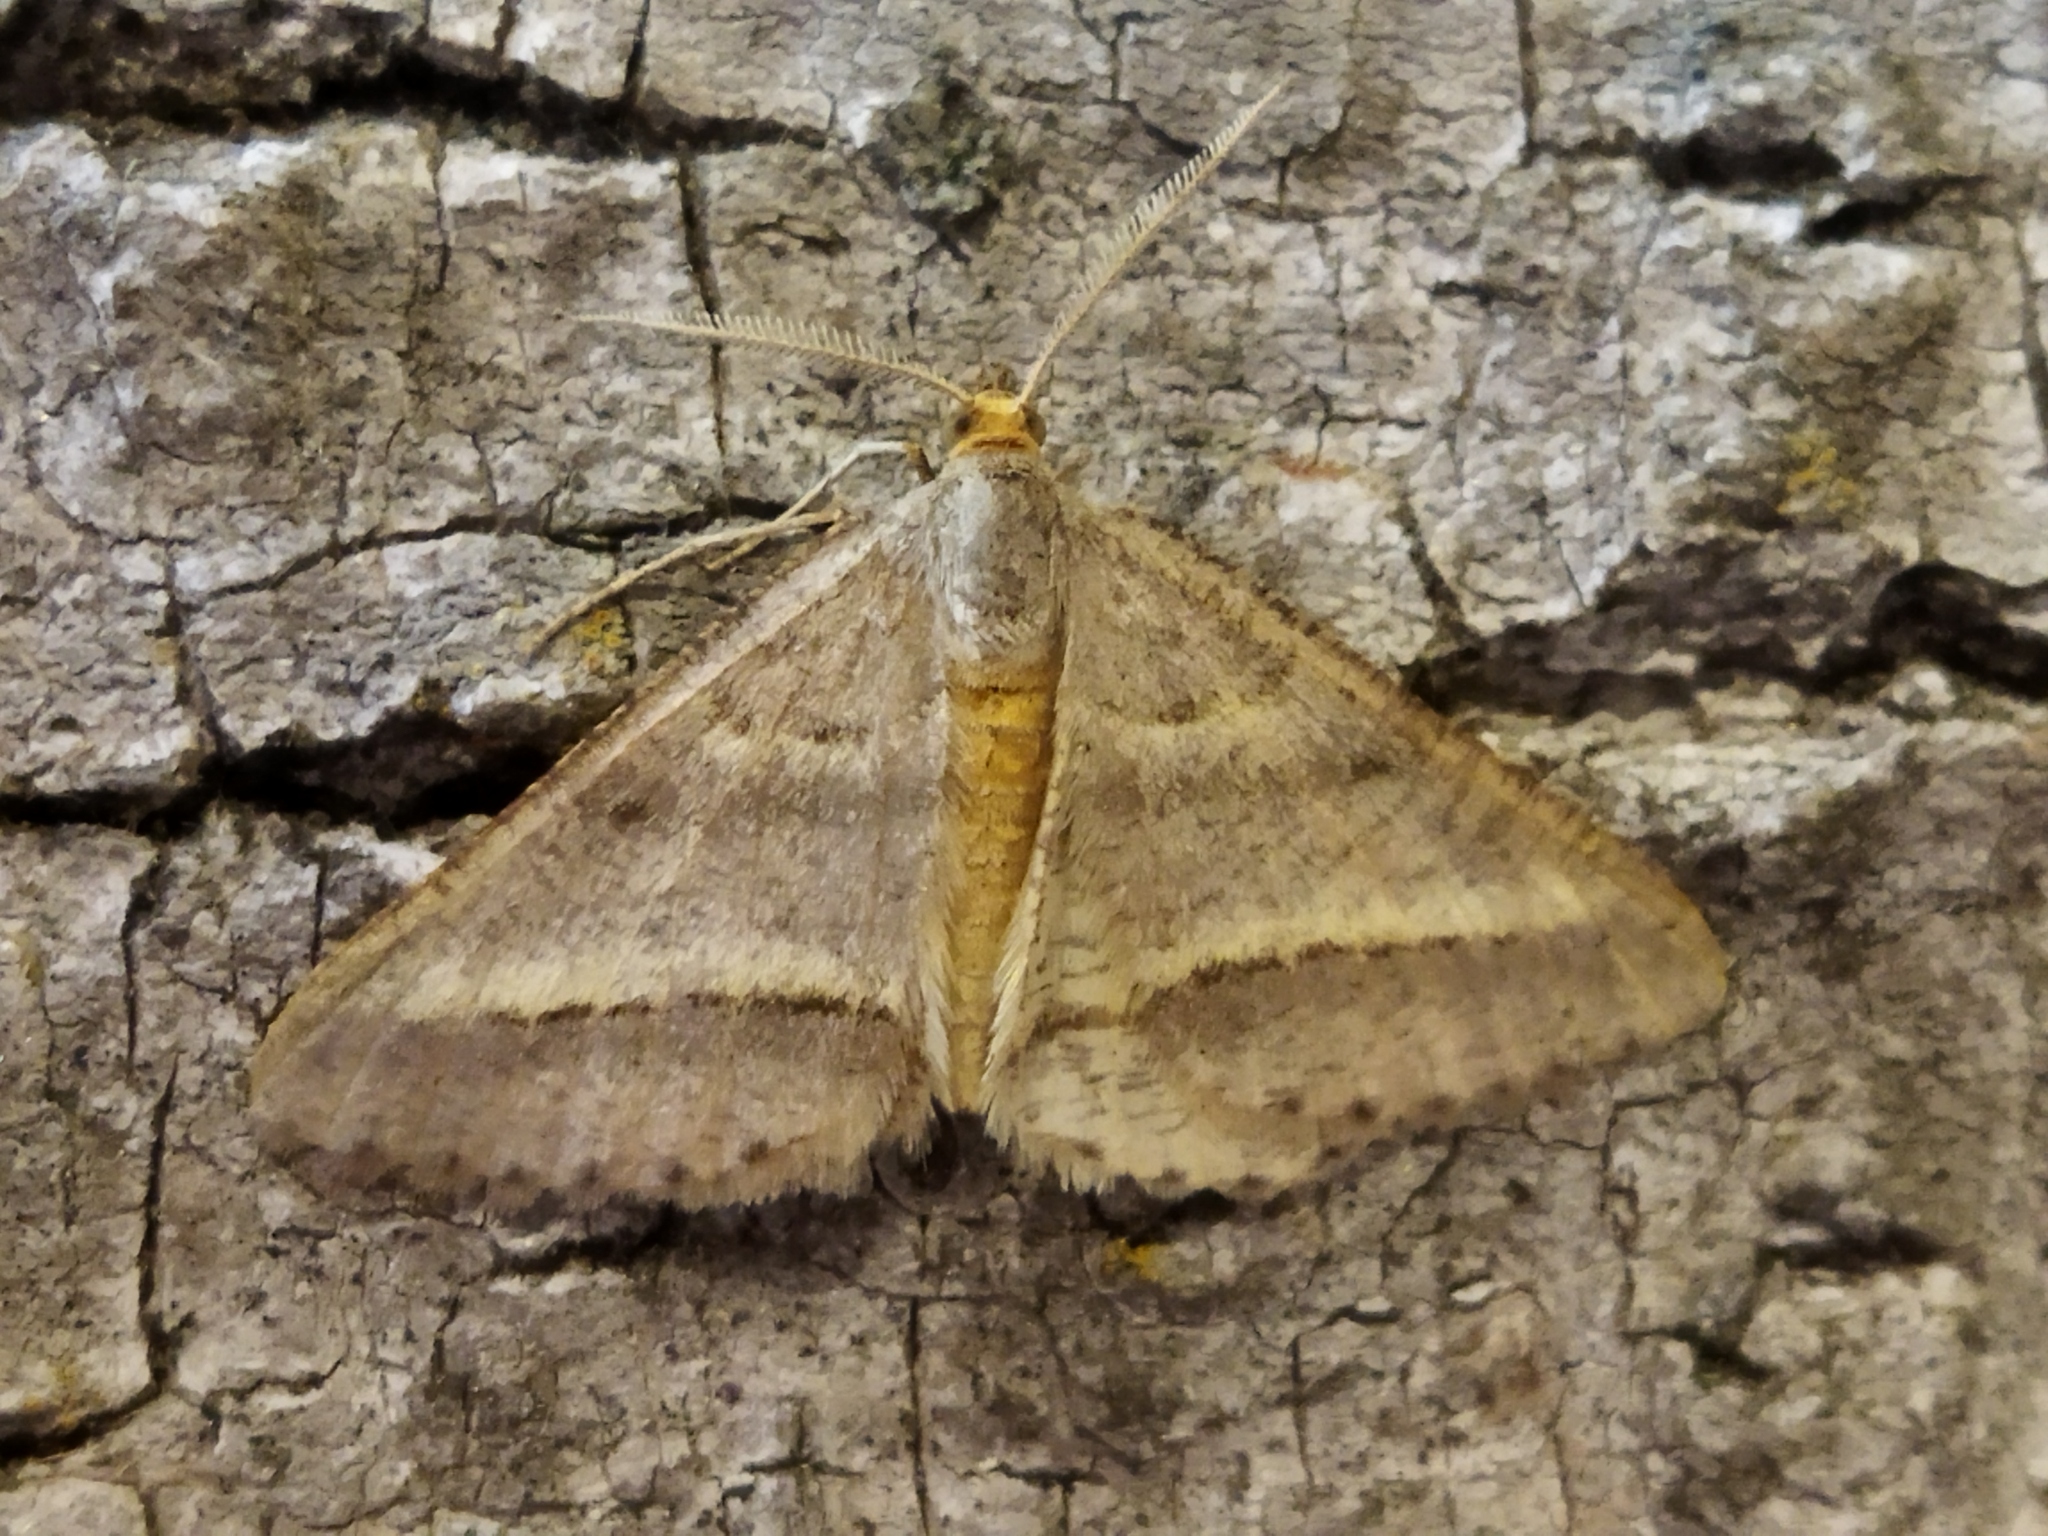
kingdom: Animalia
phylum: Arthropoda
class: Insecta
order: Lepidoptera
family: Geometridae
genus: Tephrina
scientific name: Tephrina arenacearia
